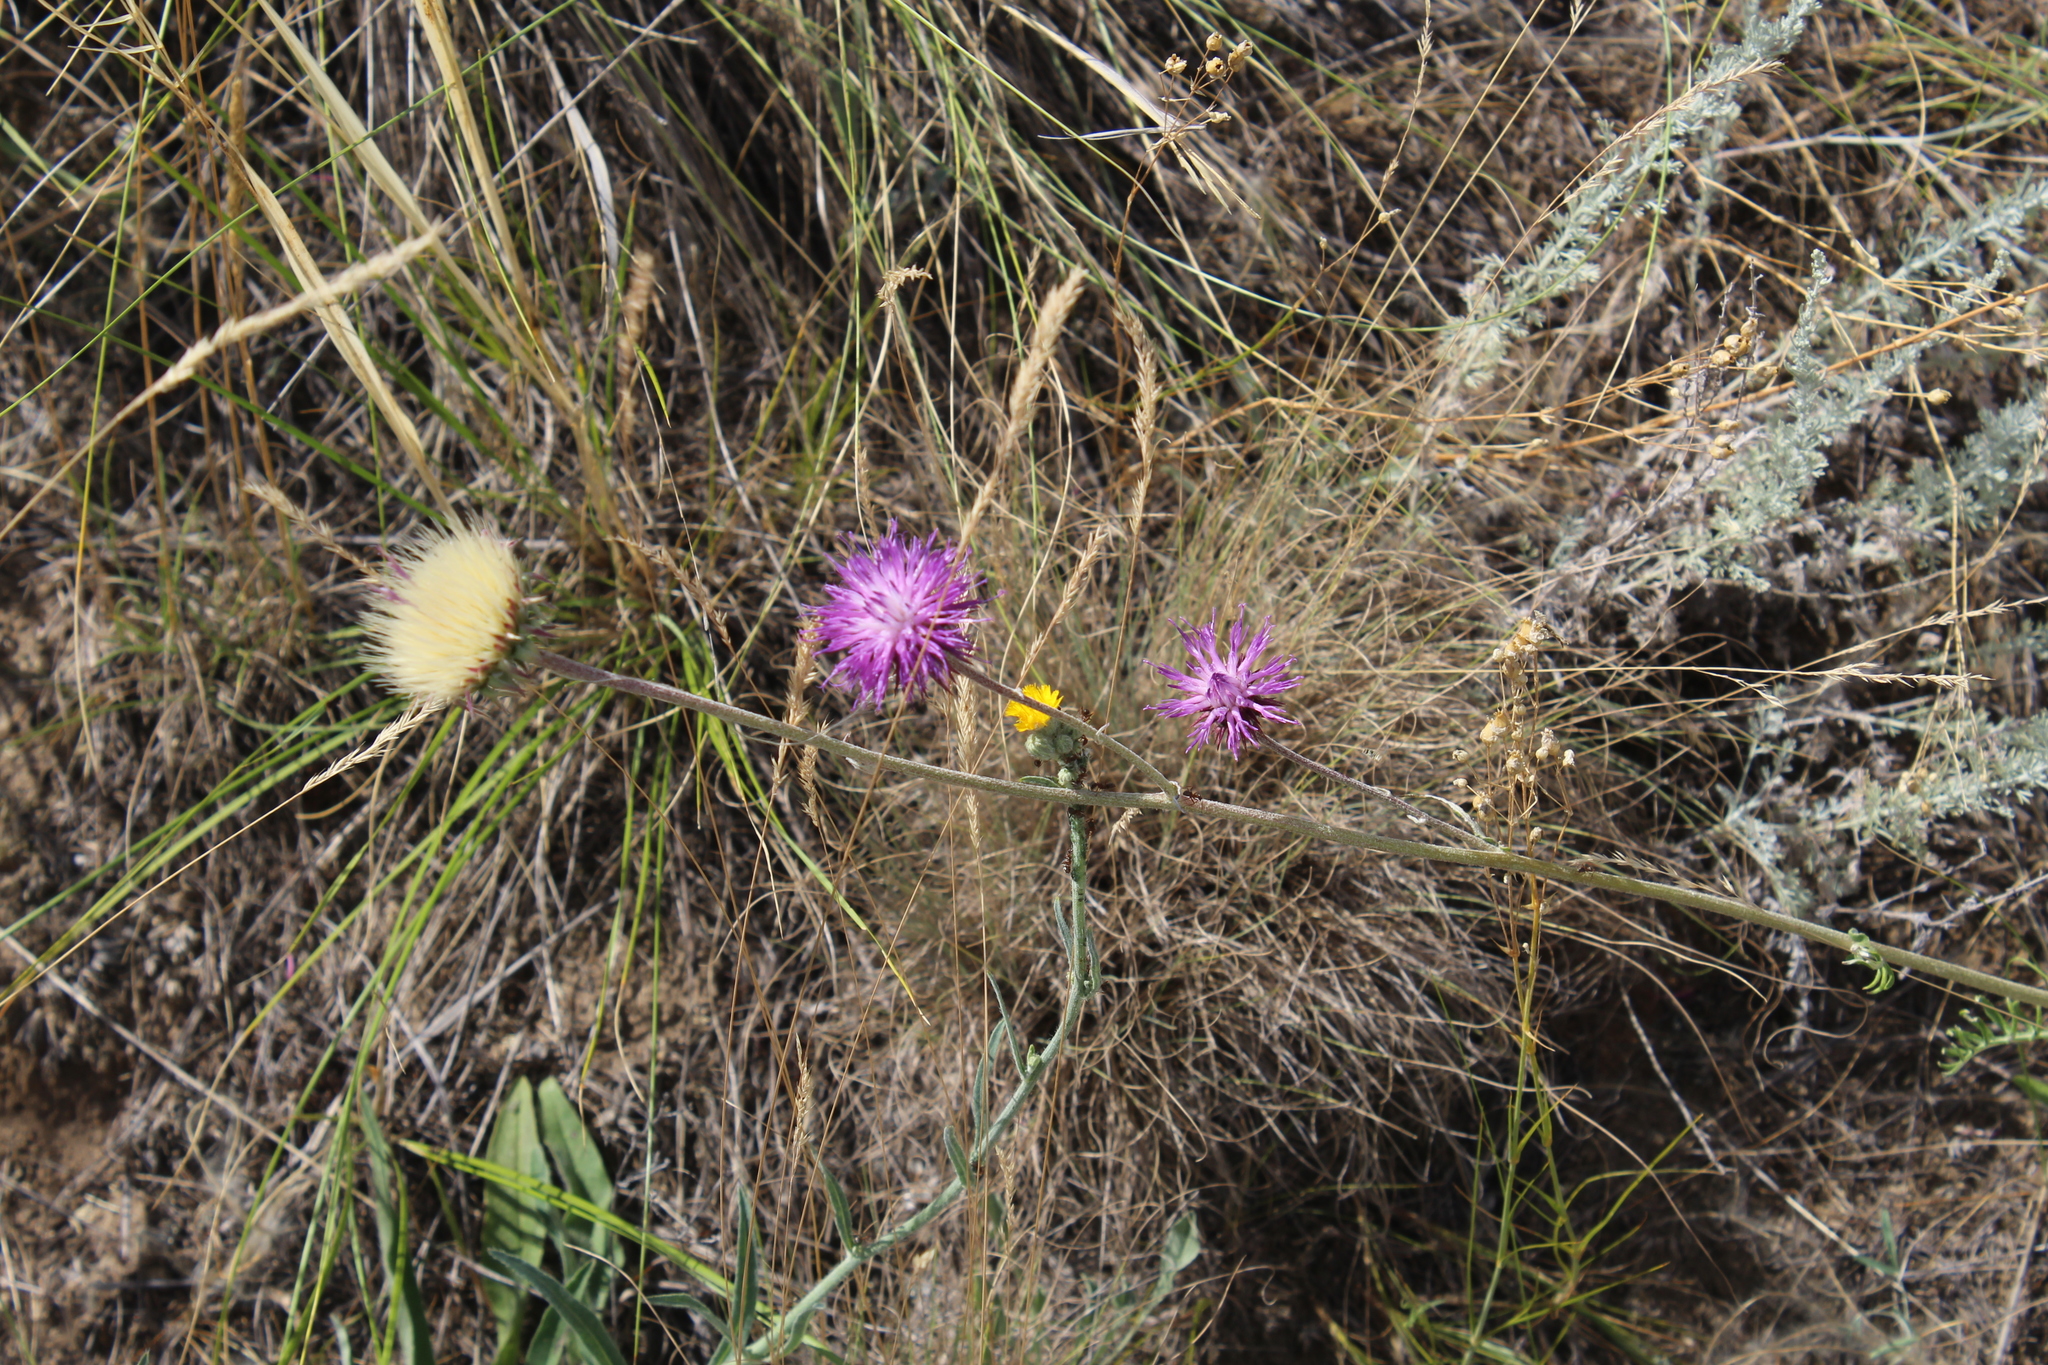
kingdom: Plantae
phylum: Tracheophyta
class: Magnoliopsida
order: Asterales
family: Asteraceae
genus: Jurinea
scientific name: Jurinea cyanoides
